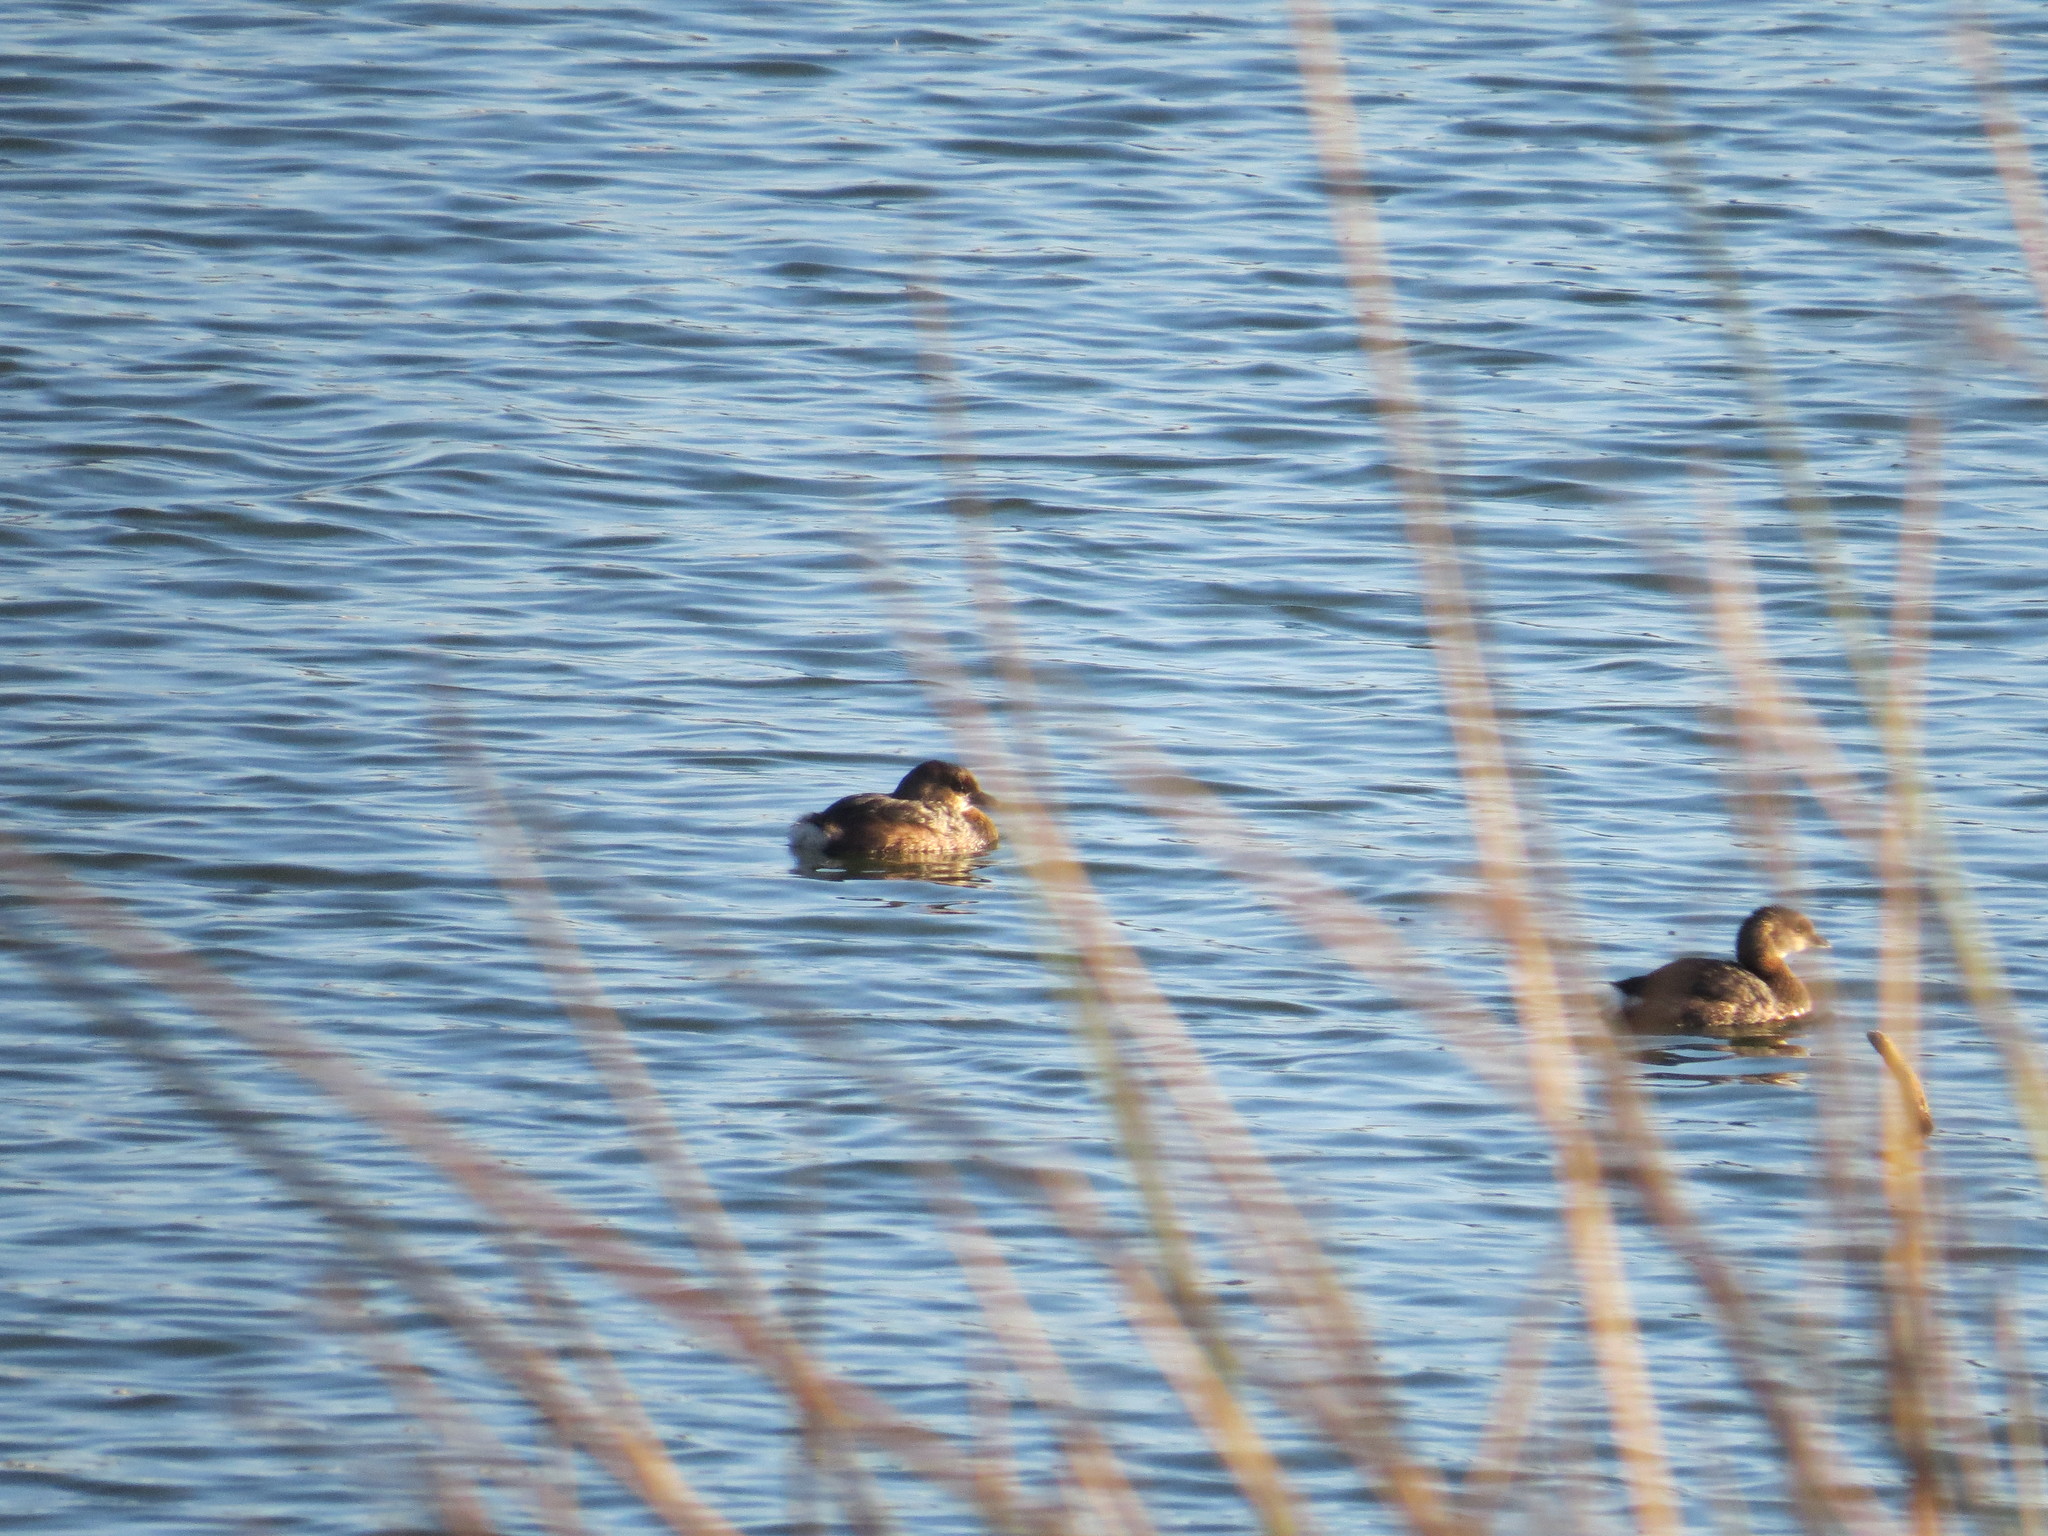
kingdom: Animalia
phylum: Chordata
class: Aves
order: Podicipediformes
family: Podicipedidae
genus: Podilymbus
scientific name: Podilymbus podiceps
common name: Pied-billed grebe
